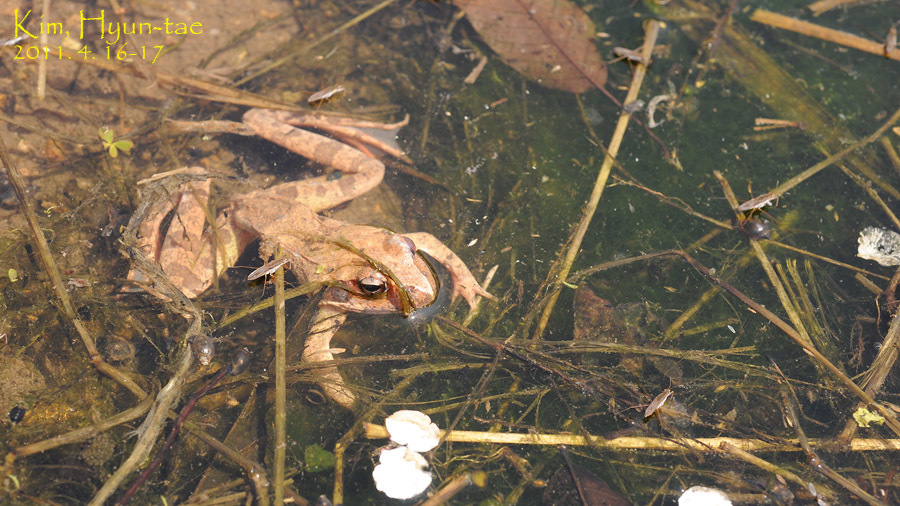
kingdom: Animalia
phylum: Chordata
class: Amphibia
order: Anura
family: Ranidae
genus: Rana
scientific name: Rana uenoi
